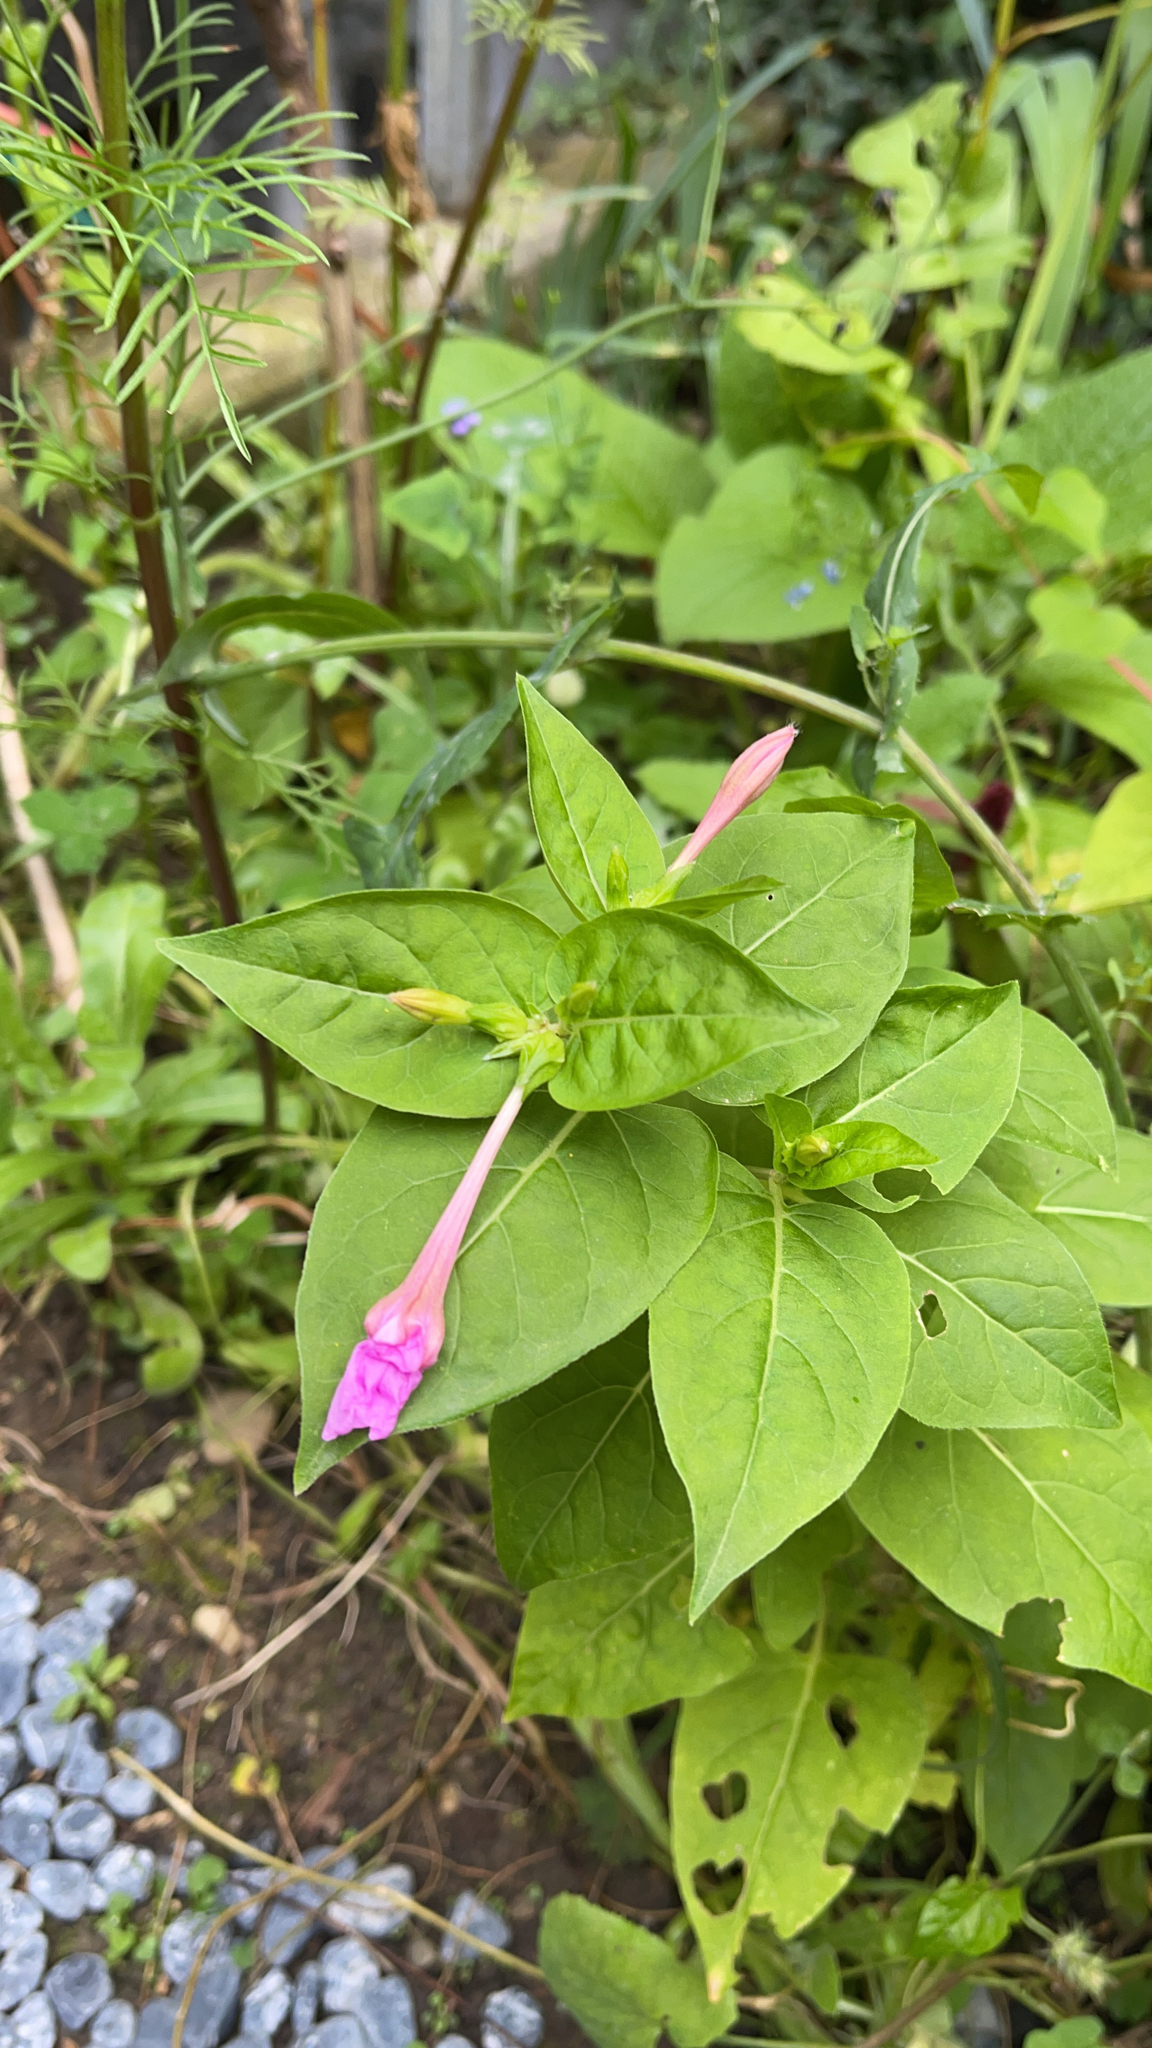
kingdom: Plantae
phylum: Tracheophyta
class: Magnoliopsida
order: Caryophyllales
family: Nyctaginaceae
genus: Mirabilis
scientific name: Mirabilis jalapa
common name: Marvel-of-peru
